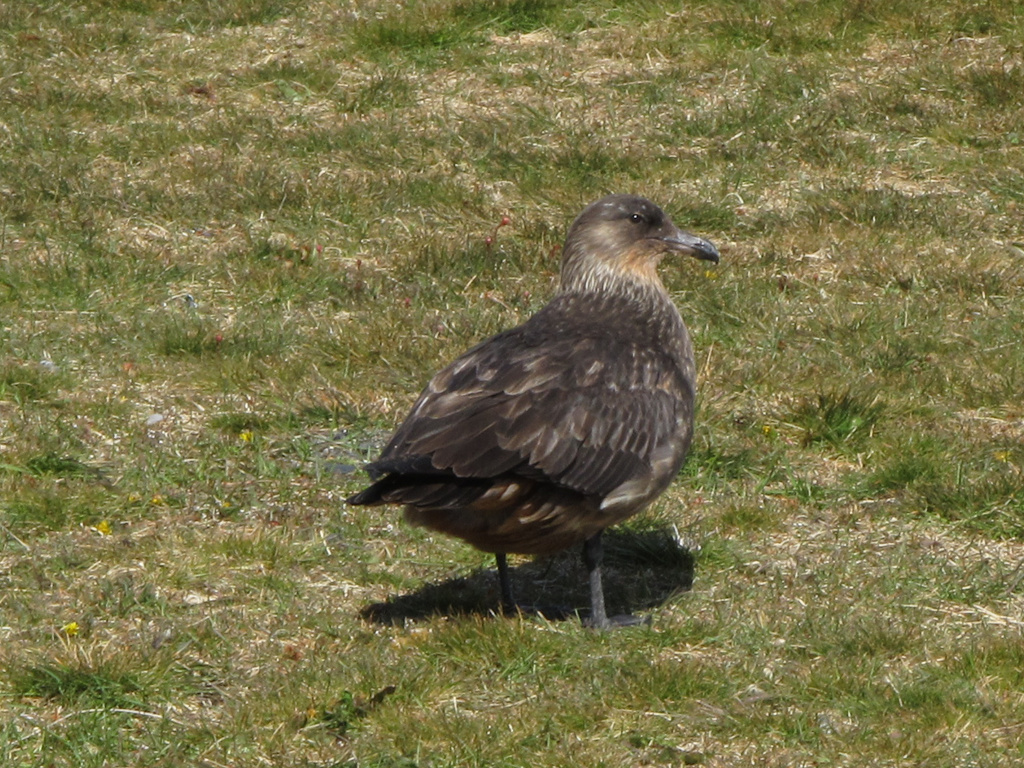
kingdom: Animalia
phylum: Chordata
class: Aves
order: Charadriiformes
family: Stercorariidae
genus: Stercorarius
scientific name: Stercorarius chilensis
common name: Chilean skua
